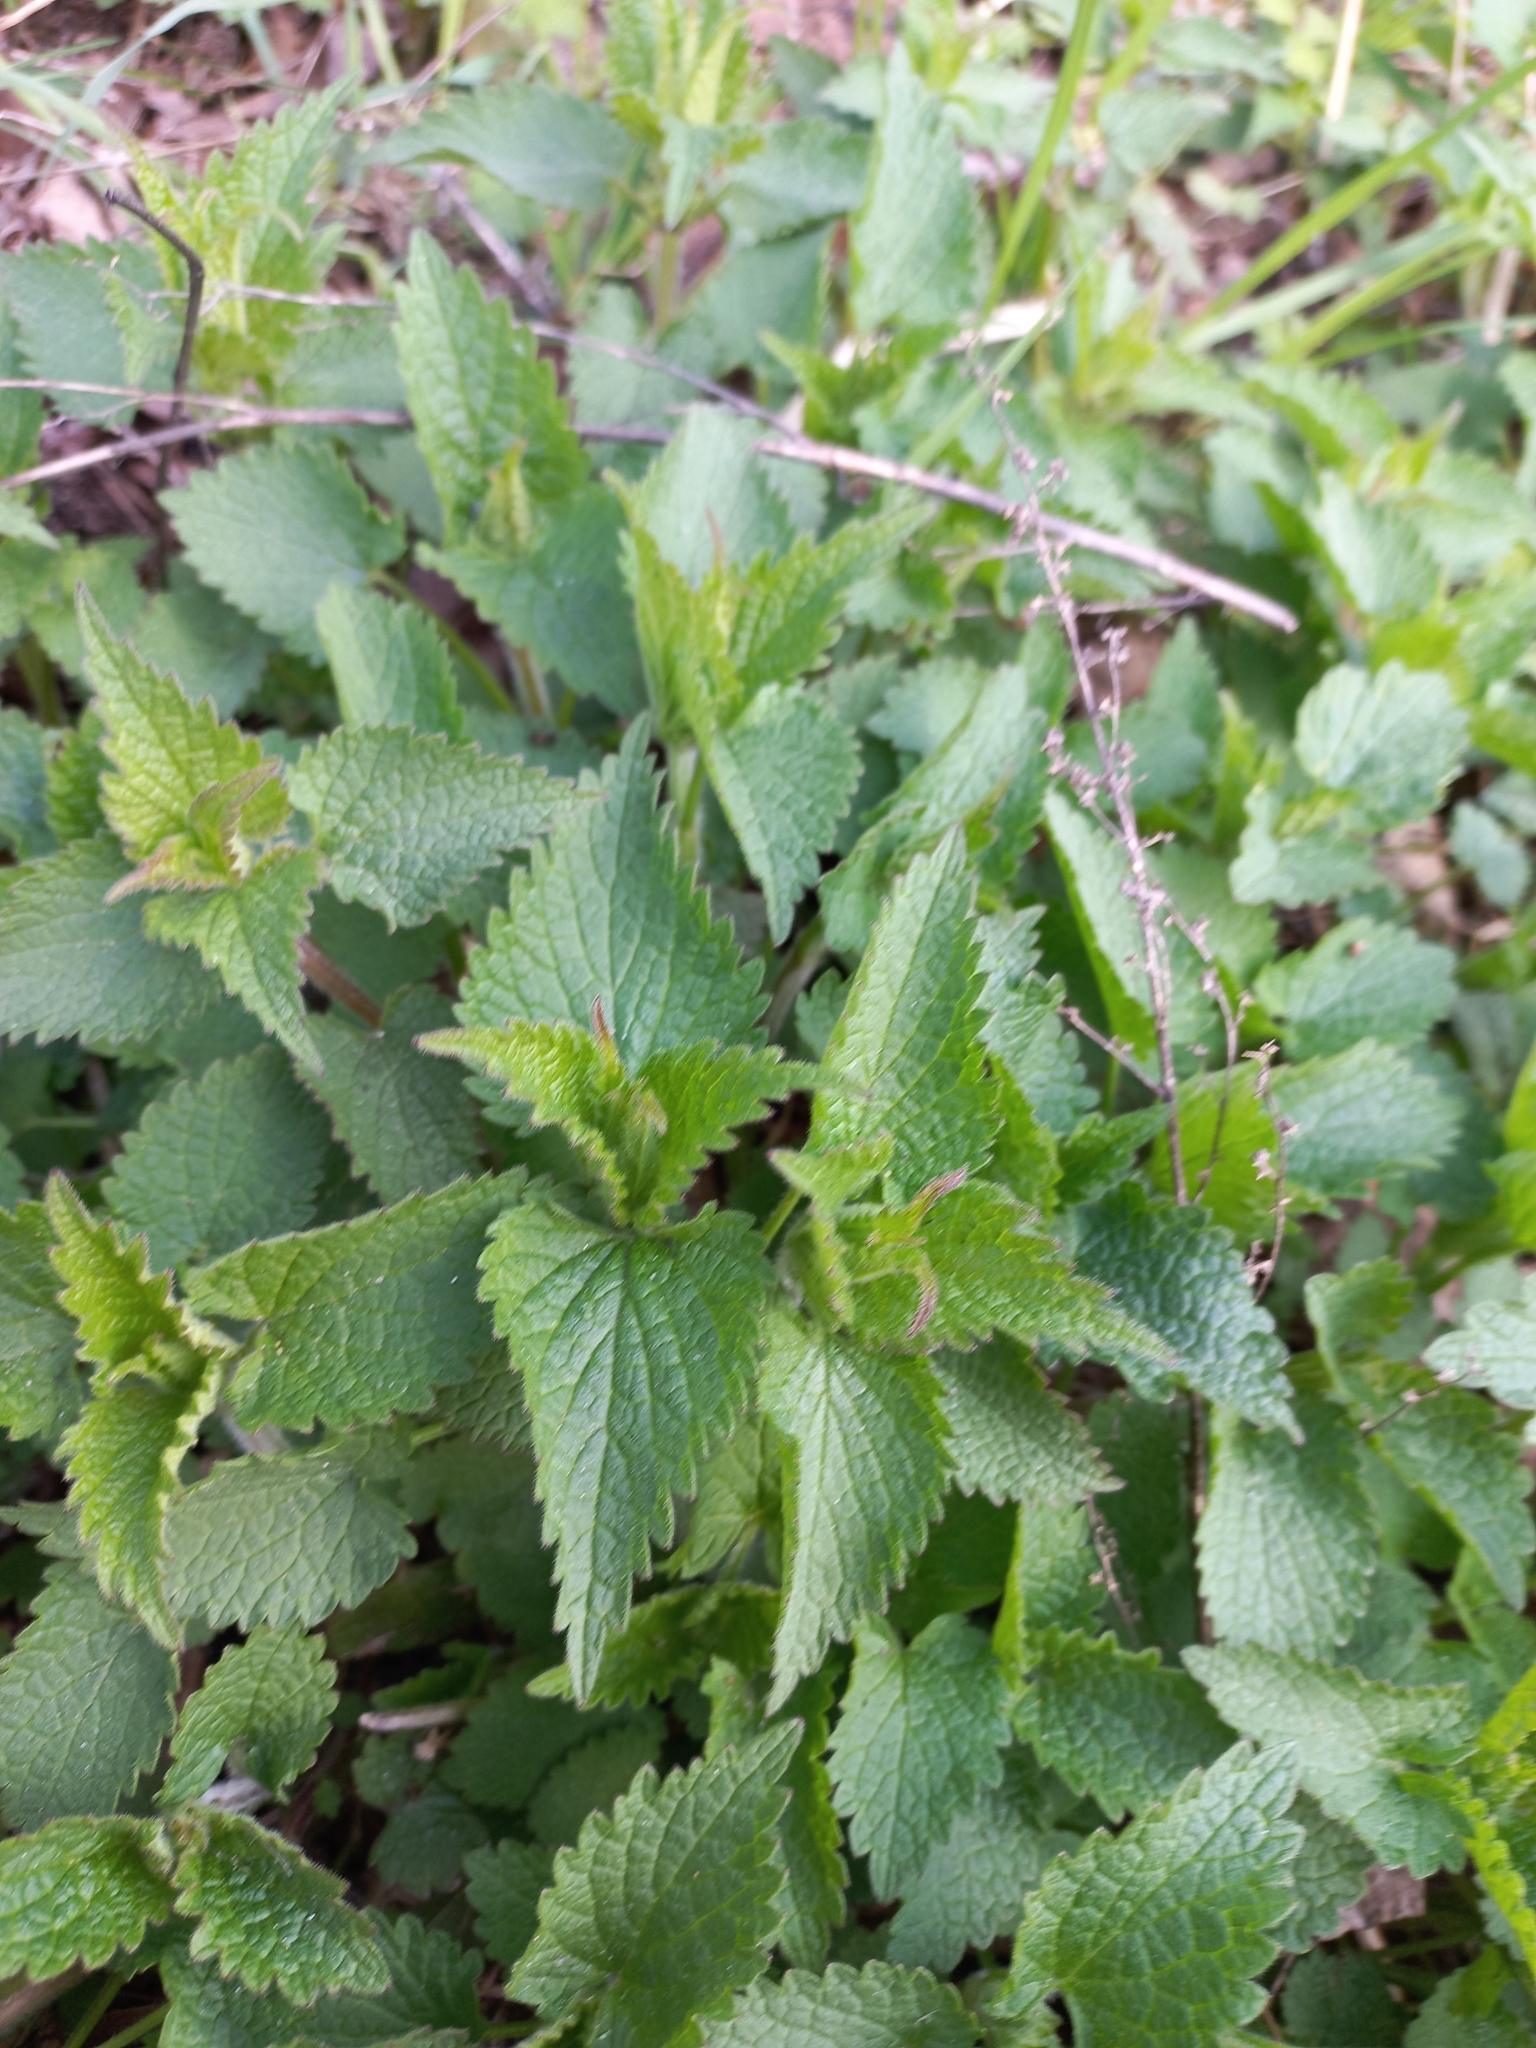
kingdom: Plantae
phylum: Tracheophyta
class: Magnoliopsida
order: Rosales
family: Urticaceae
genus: Urtica
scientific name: Urtica dioica
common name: Common nettle
